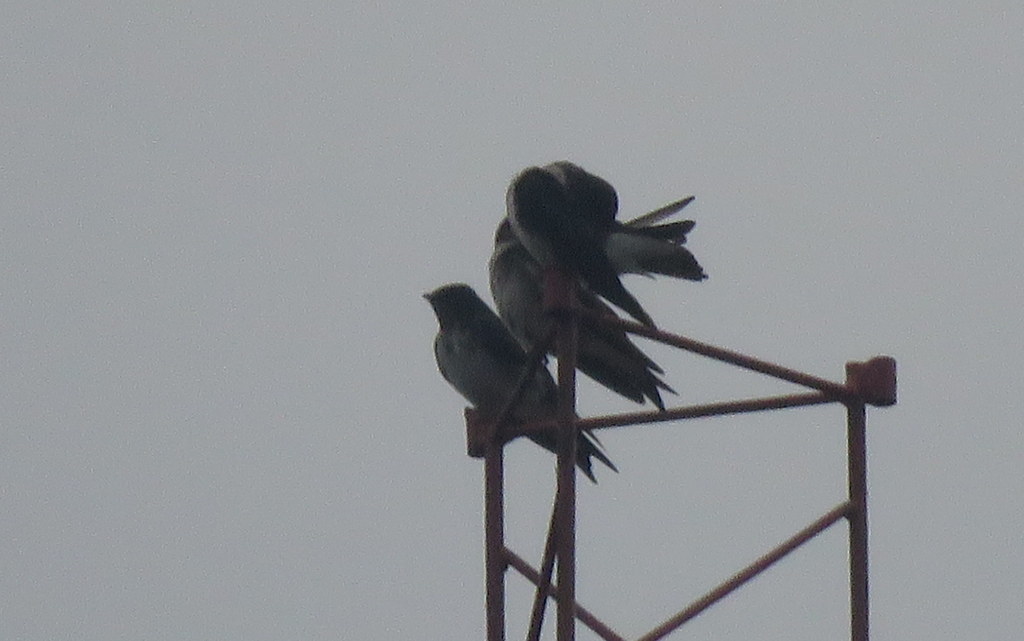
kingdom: Animalia
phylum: Chordata
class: Aves
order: Passeriformes
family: Hirundinidae
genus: Progne
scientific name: Progne chalybea
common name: Grey-breasted martin
